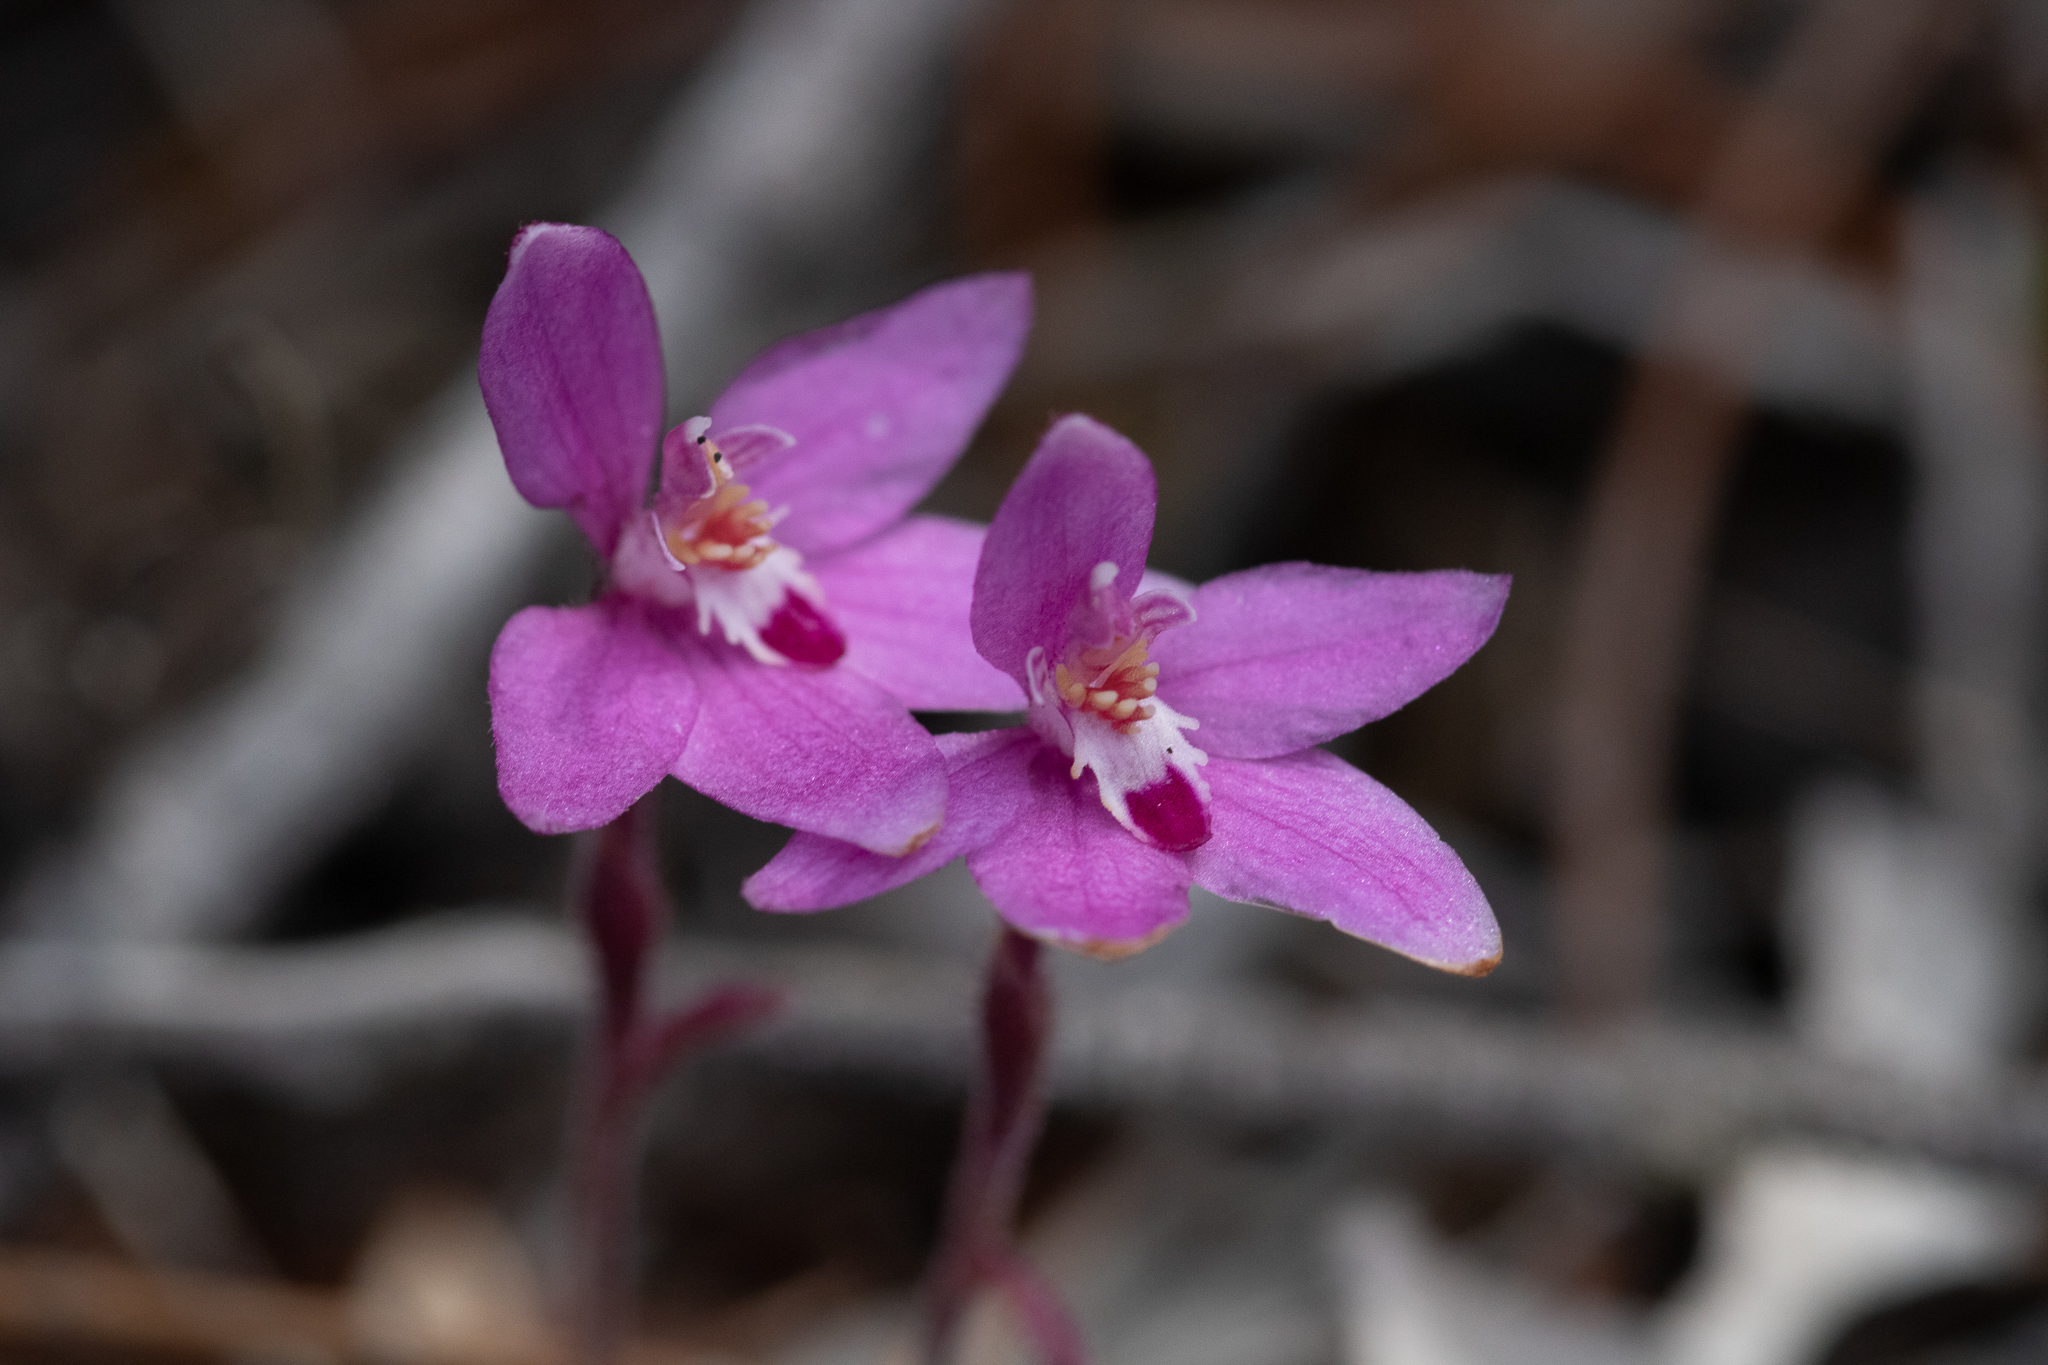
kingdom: Plantae
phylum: Tracheophyta
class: Liliopsida
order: Asparagales
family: Orchidaceae
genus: Caladenia
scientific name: Caladenia reptans
